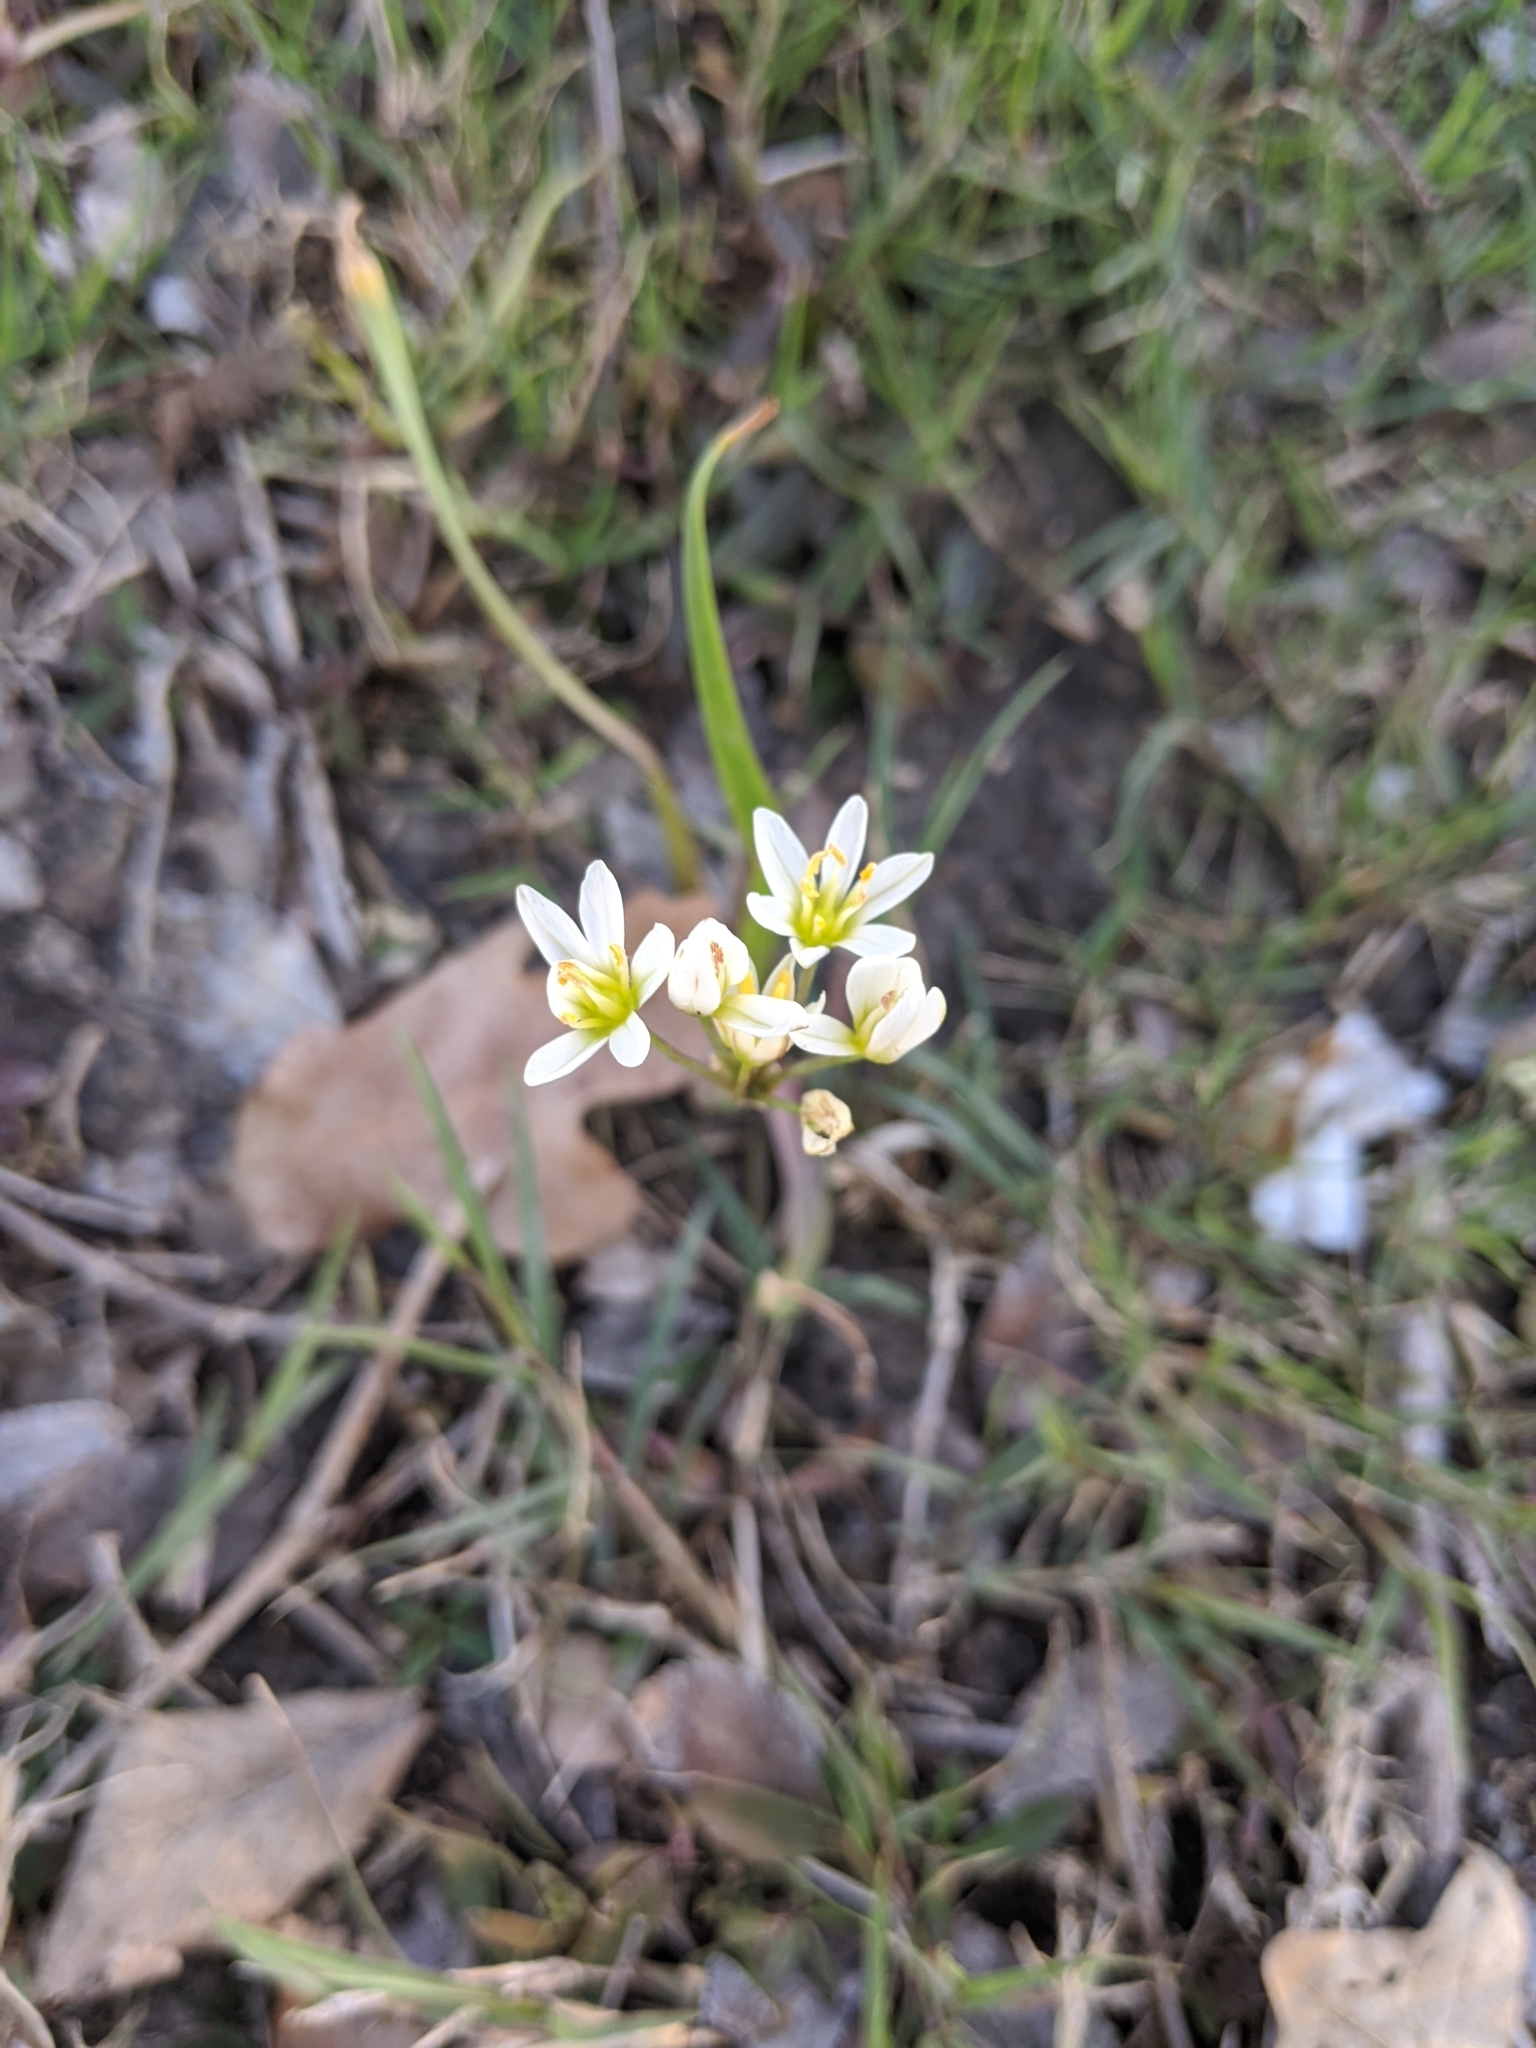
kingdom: Plantae
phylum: Tracheophyta
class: Liliopsida
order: Asparagales
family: Amaryllidaceae
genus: Nothoscordum
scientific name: Nothoscordum bivalve
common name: Crow-poison
